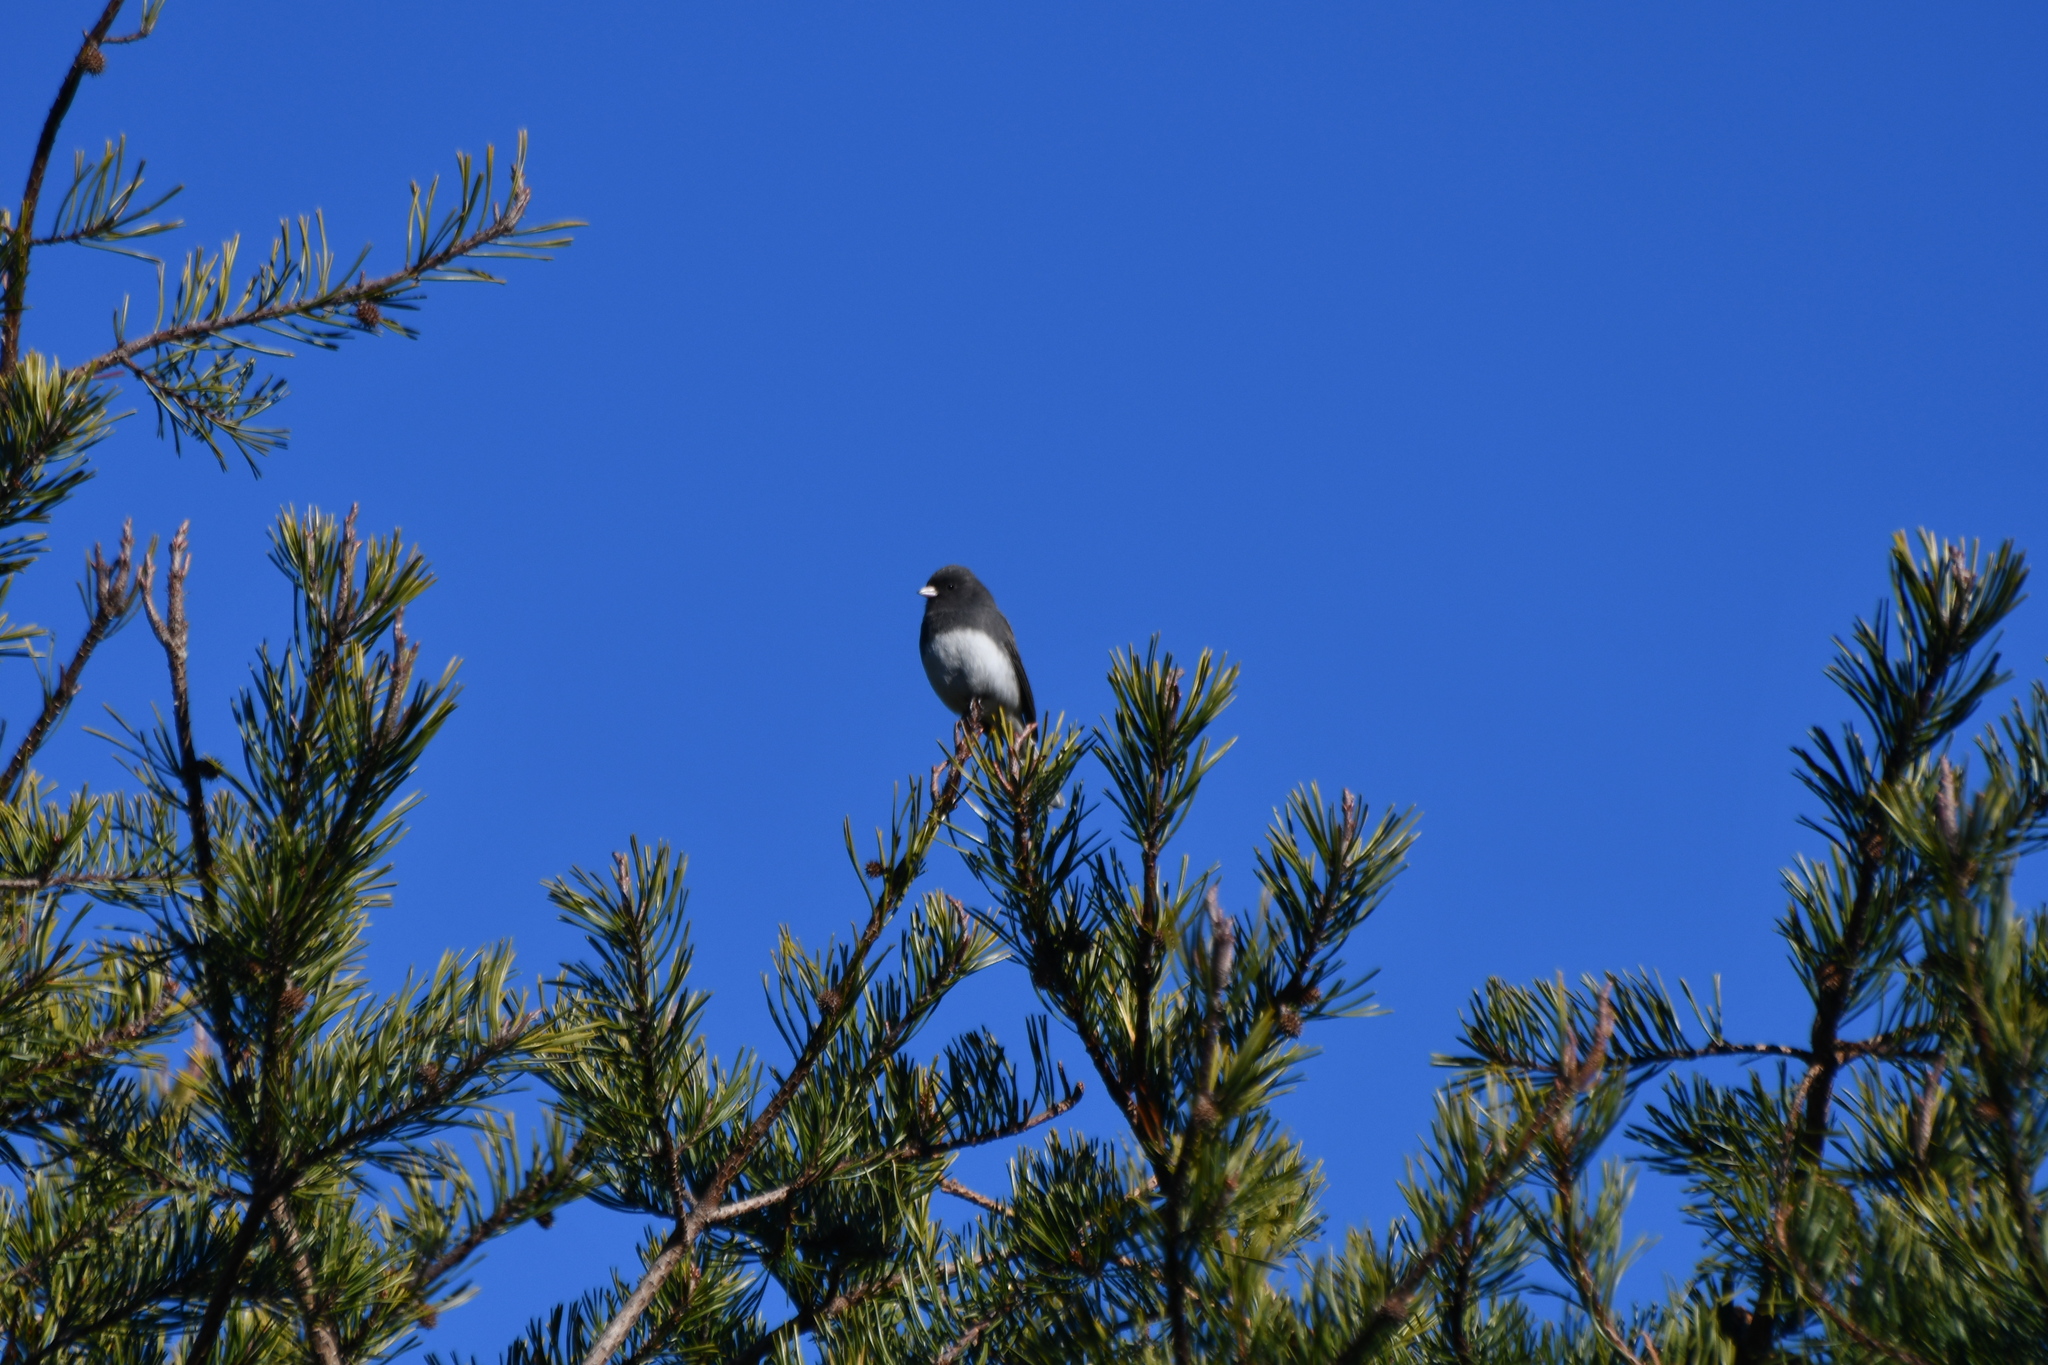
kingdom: Animalia
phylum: Chordata
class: Aves
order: Passeriformes
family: Passerellidae
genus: Junco
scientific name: Junco hyemalis
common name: Dark-eyed junco
